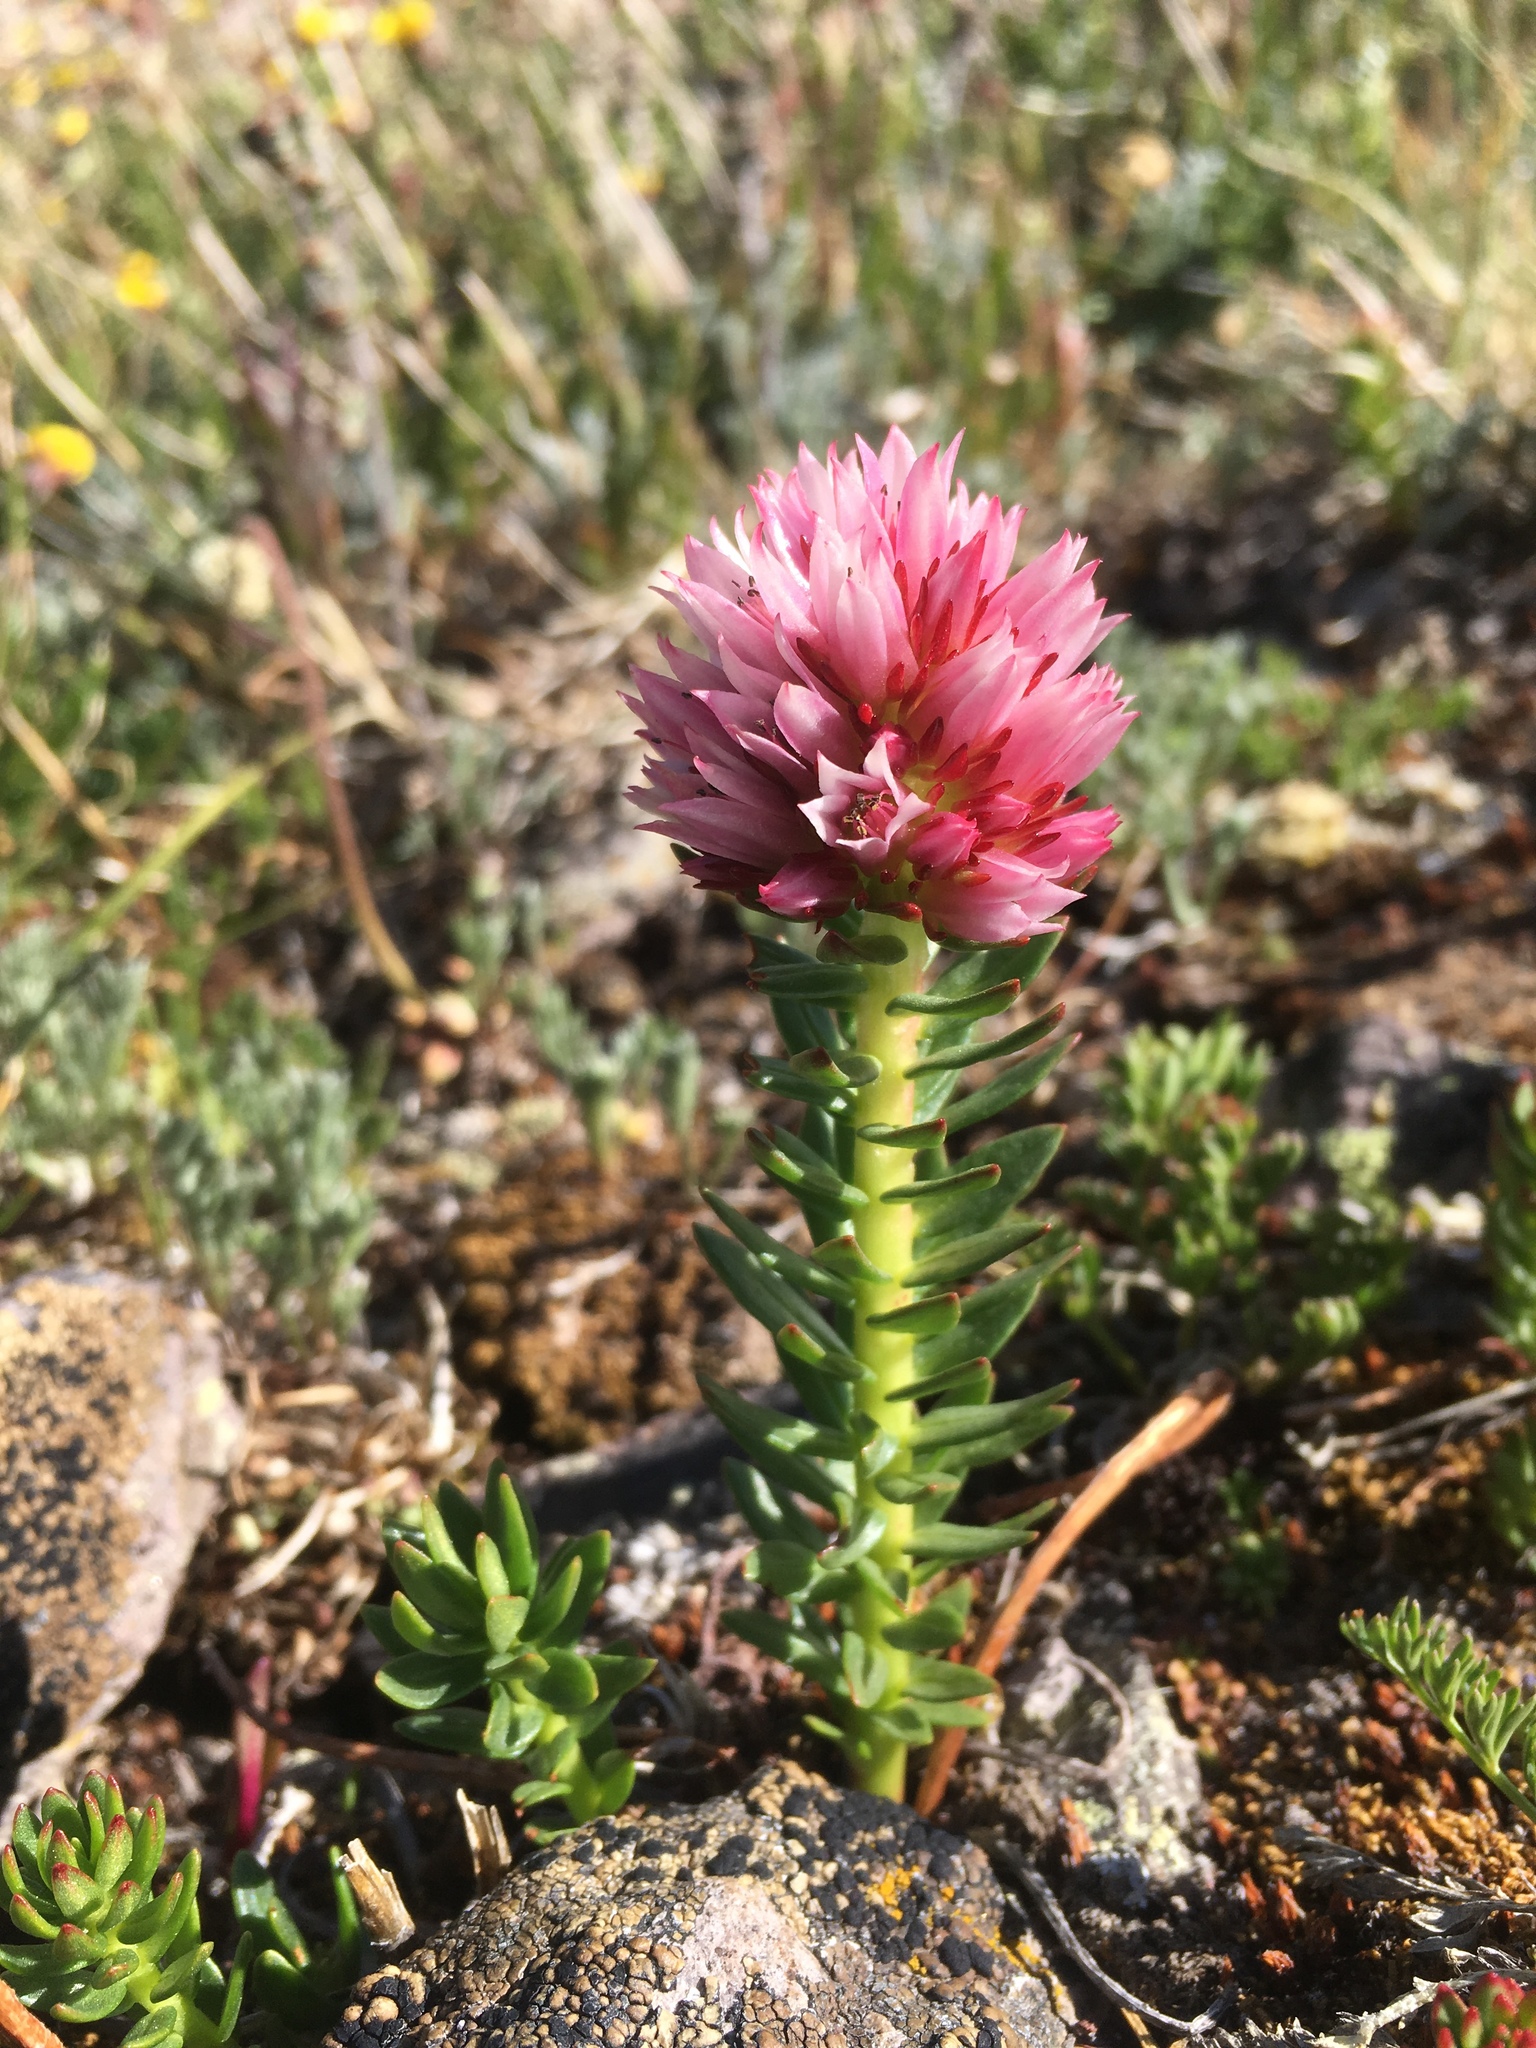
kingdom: Plantae
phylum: Tracheophyta
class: Magnoliopsida
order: Saxifragales
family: Crassulaceae
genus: Rhodiola
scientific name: Rhodiola rhodantha
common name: Red orpine
